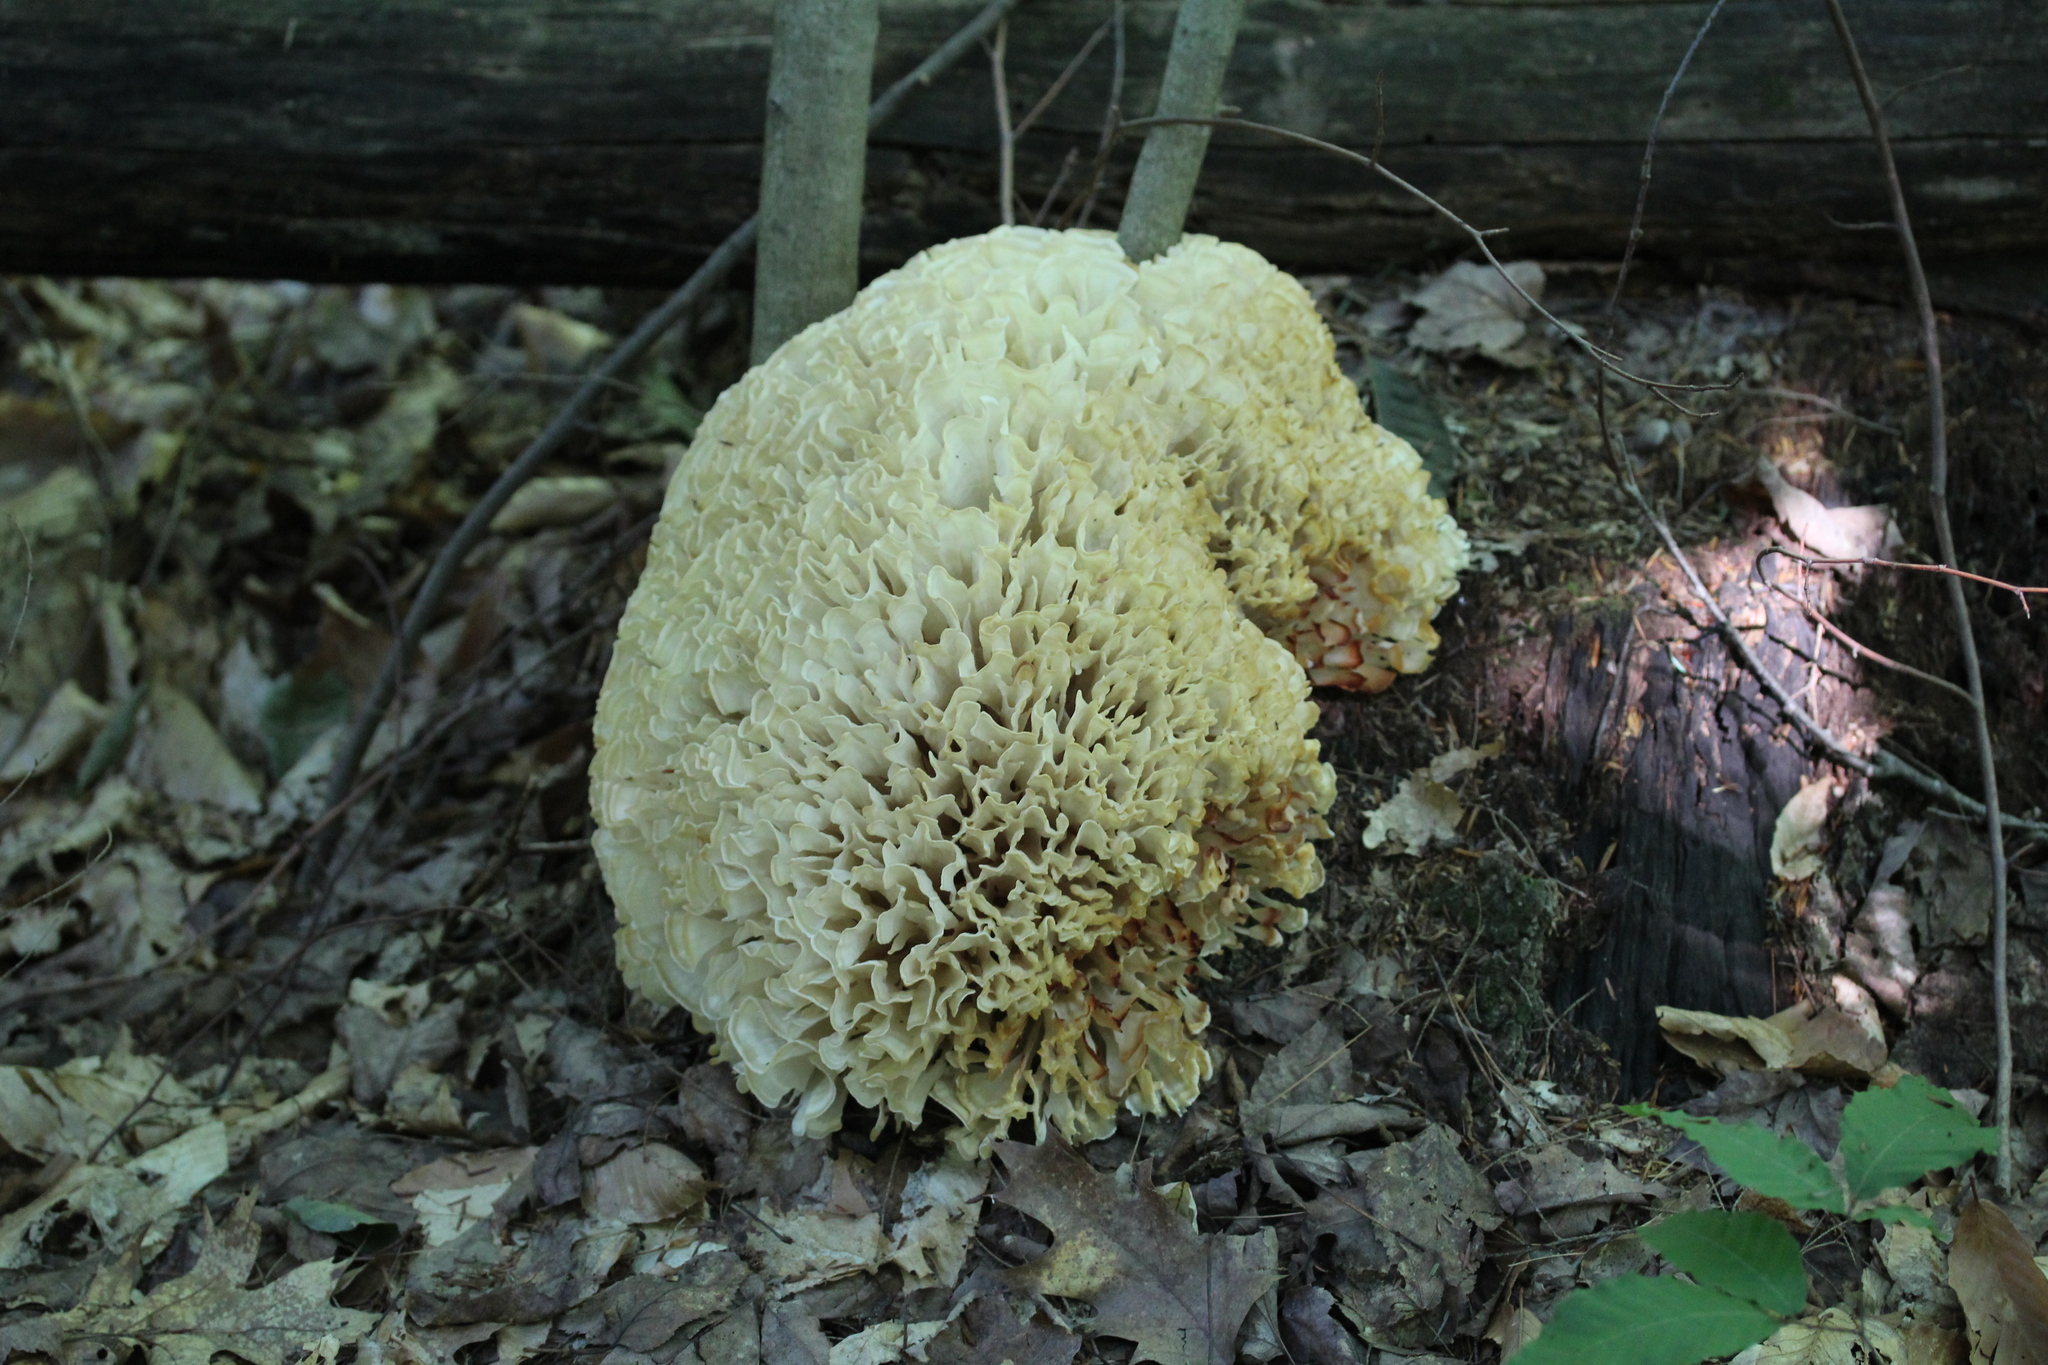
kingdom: Fungi
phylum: Basidiomycota
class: Agaricomycetes
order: Polyporales
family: Sparassidaceae
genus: Sparassis
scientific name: Sparassis spathulata
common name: Eastern cauliflower mushroom
